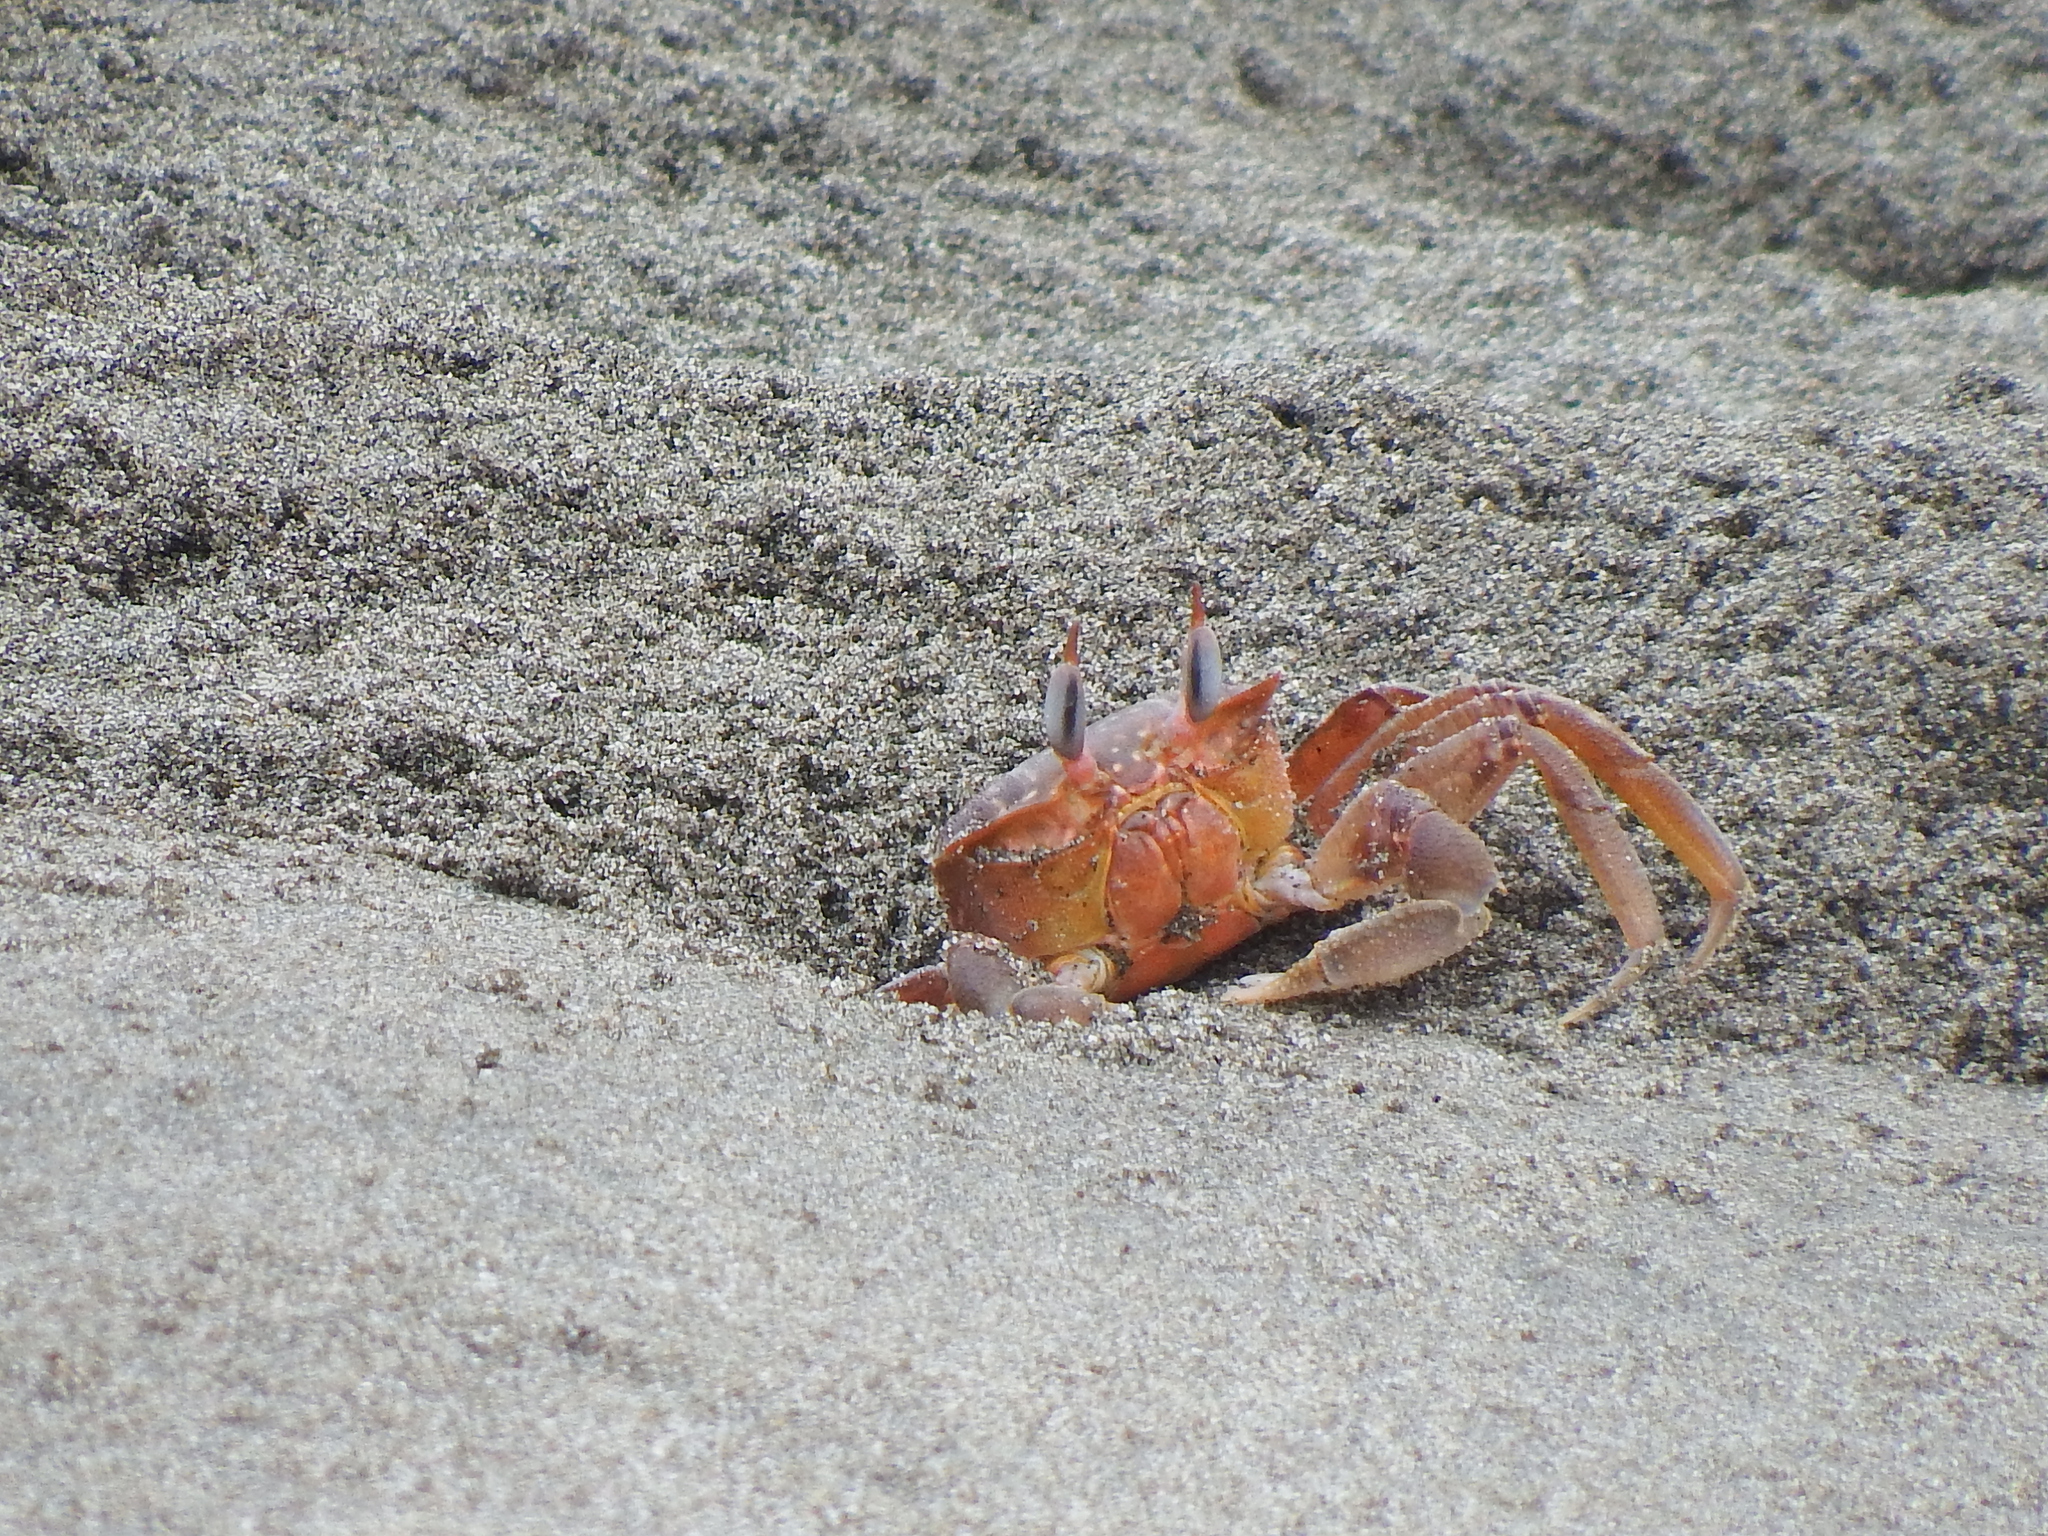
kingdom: Animalia
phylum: Arthropoda
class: Malacostraca
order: Decapoda
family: Ocypodidae
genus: Ocypode
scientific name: Ocypode gaudichaudii
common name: Pacific ghost crab
